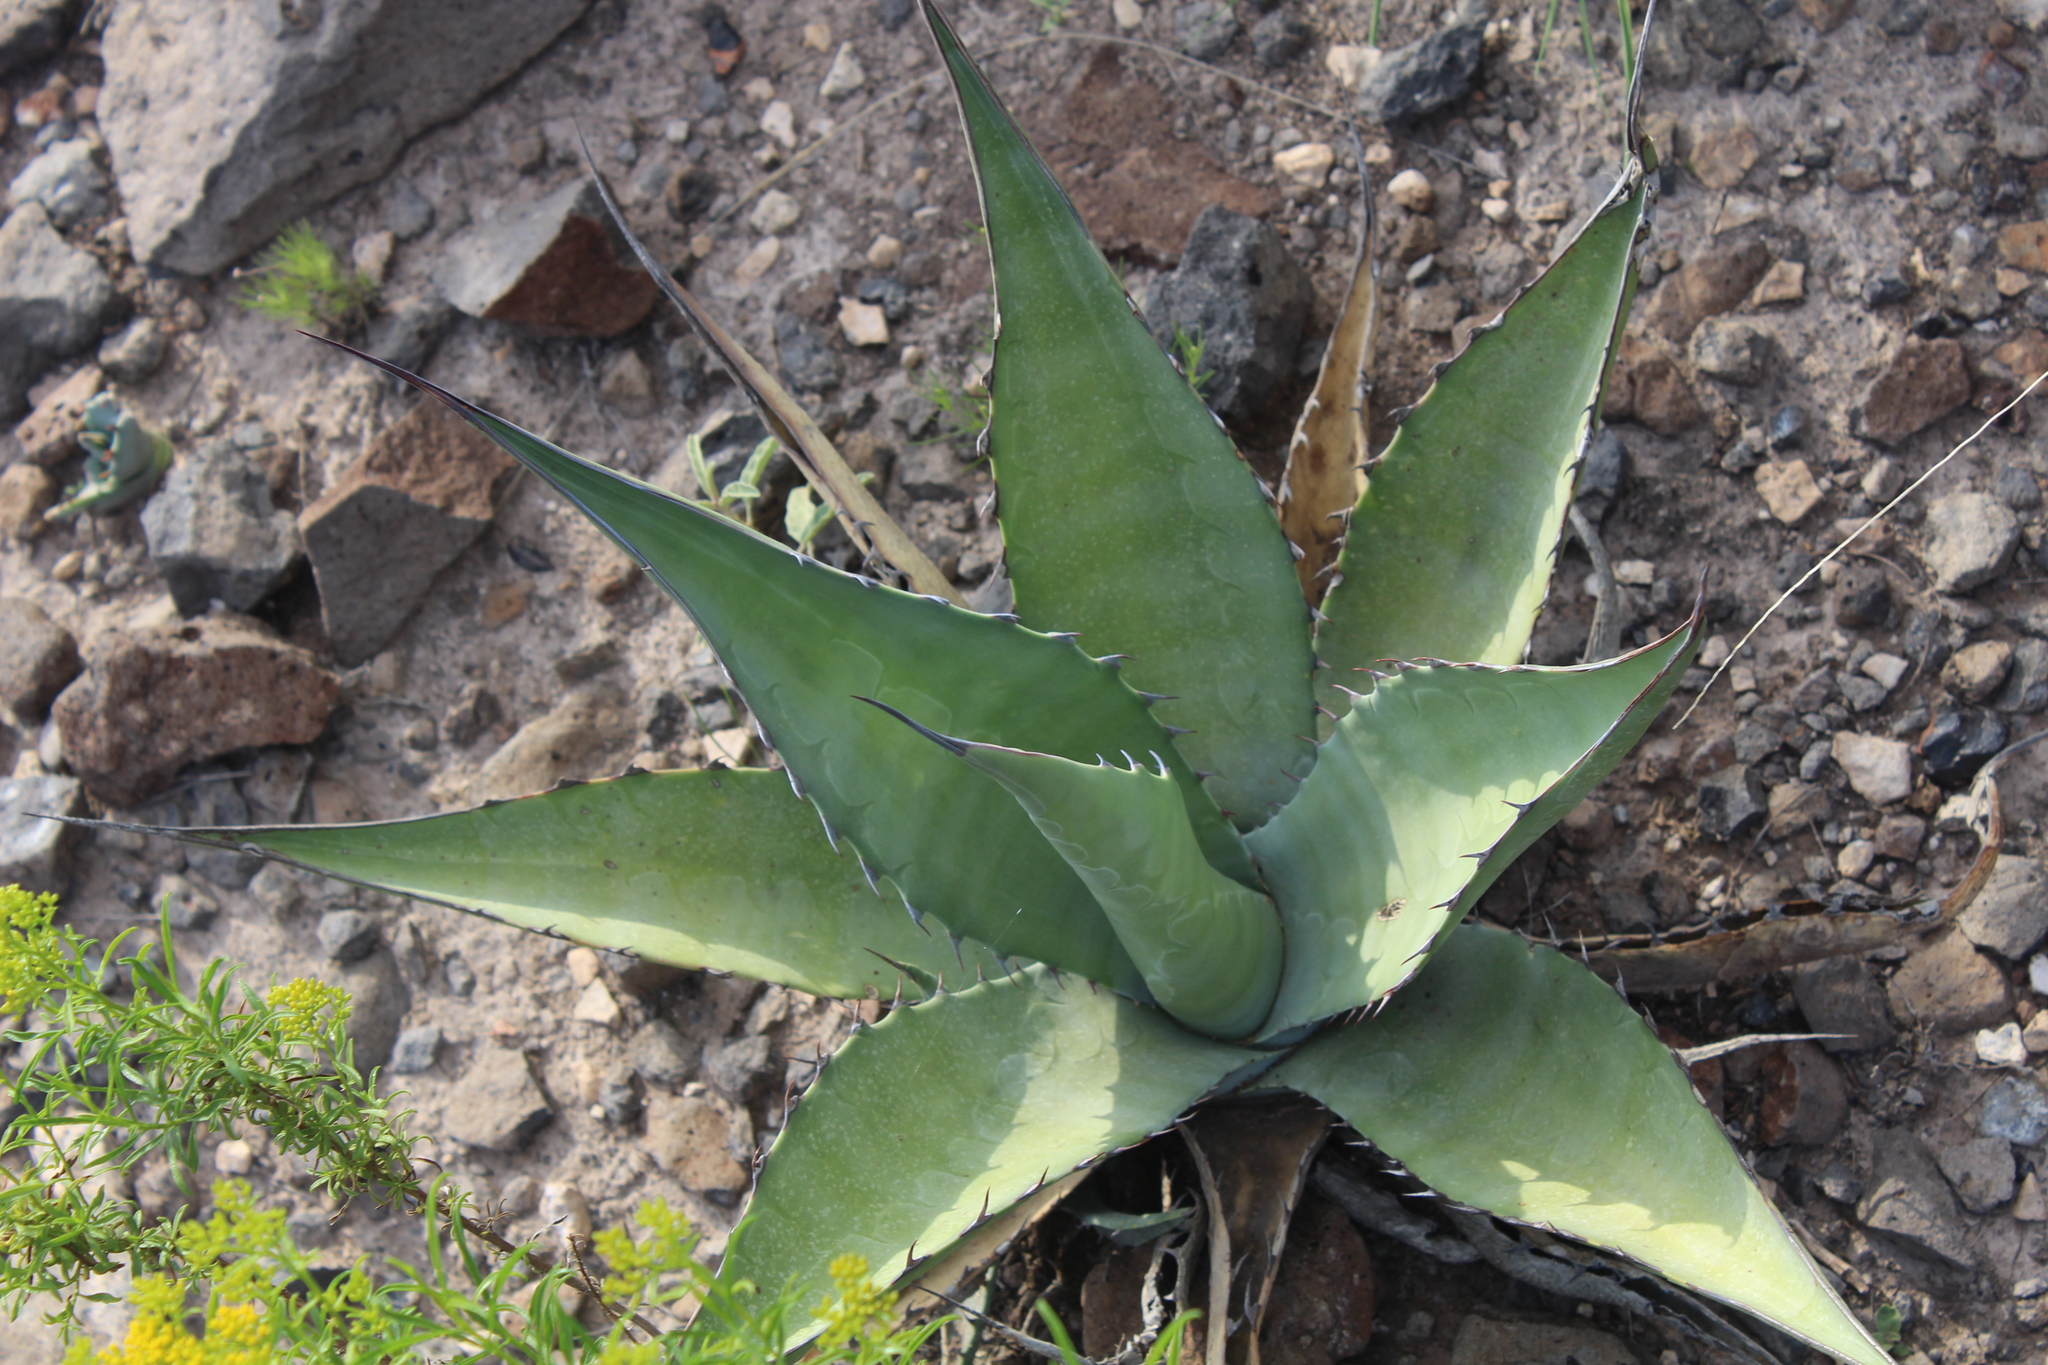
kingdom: Plantae
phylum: Tracheophyta
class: Liliopsida
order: Asparagales
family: Asparagaceae
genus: Agave
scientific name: Agave salmiana
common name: Pulque agave
